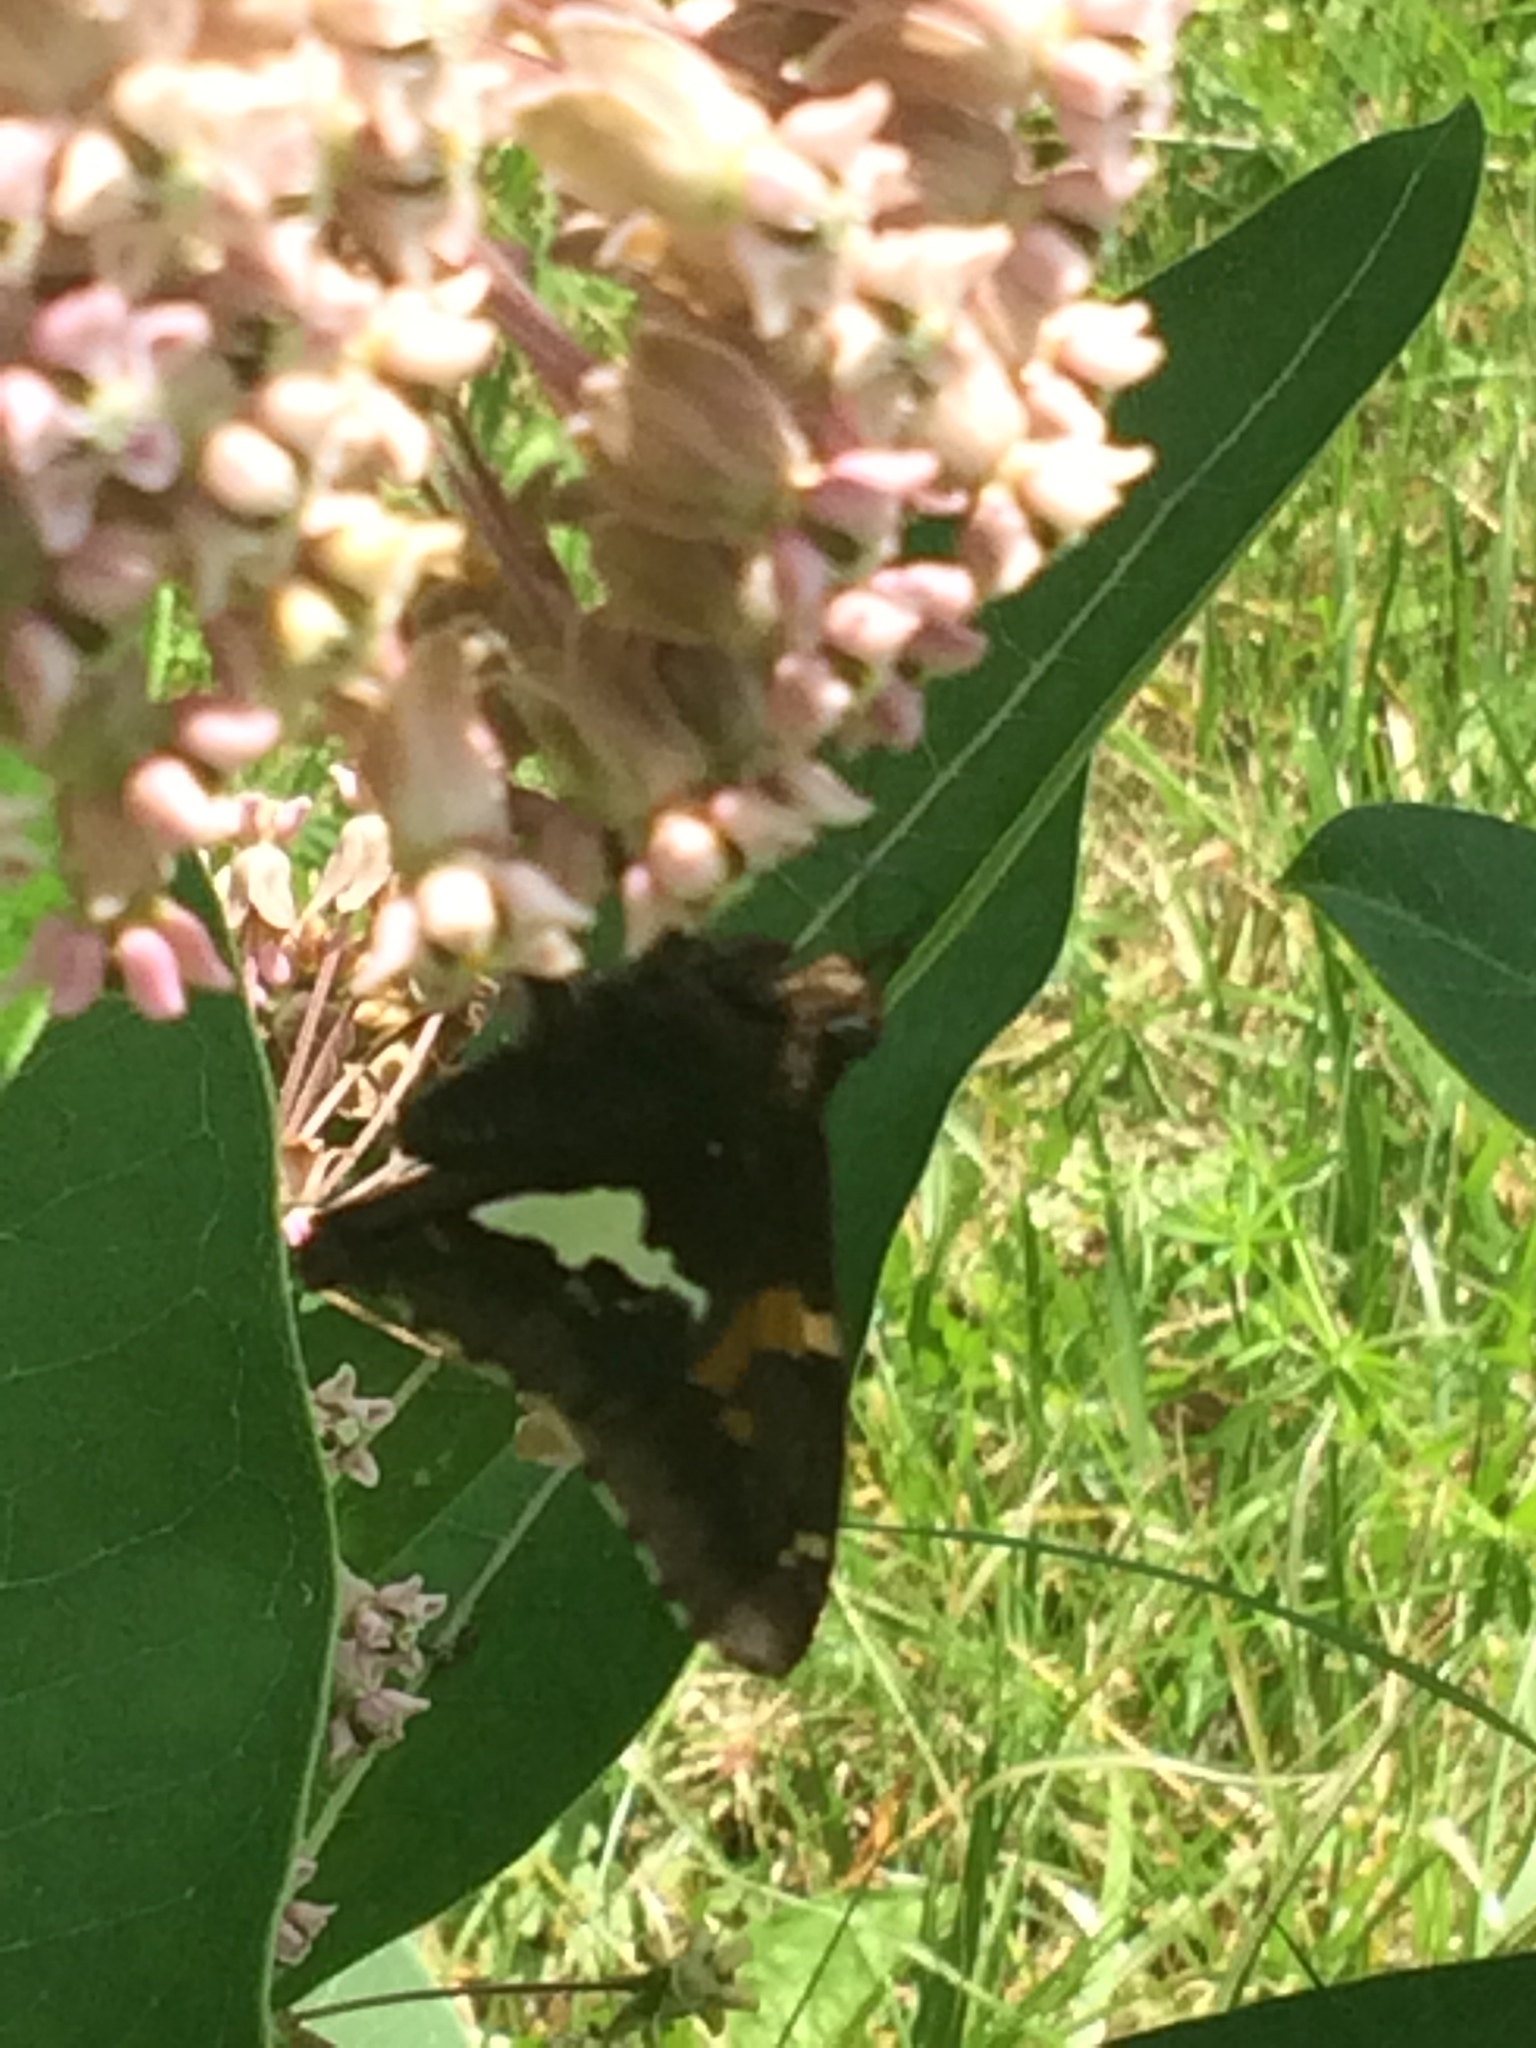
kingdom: Animalia
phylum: Arthropoda
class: Insecta
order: Lepidoptera
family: Hesperiidae
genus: Epargyreus
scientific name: Epargyreus clarus
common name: Silver-spotted skipper
